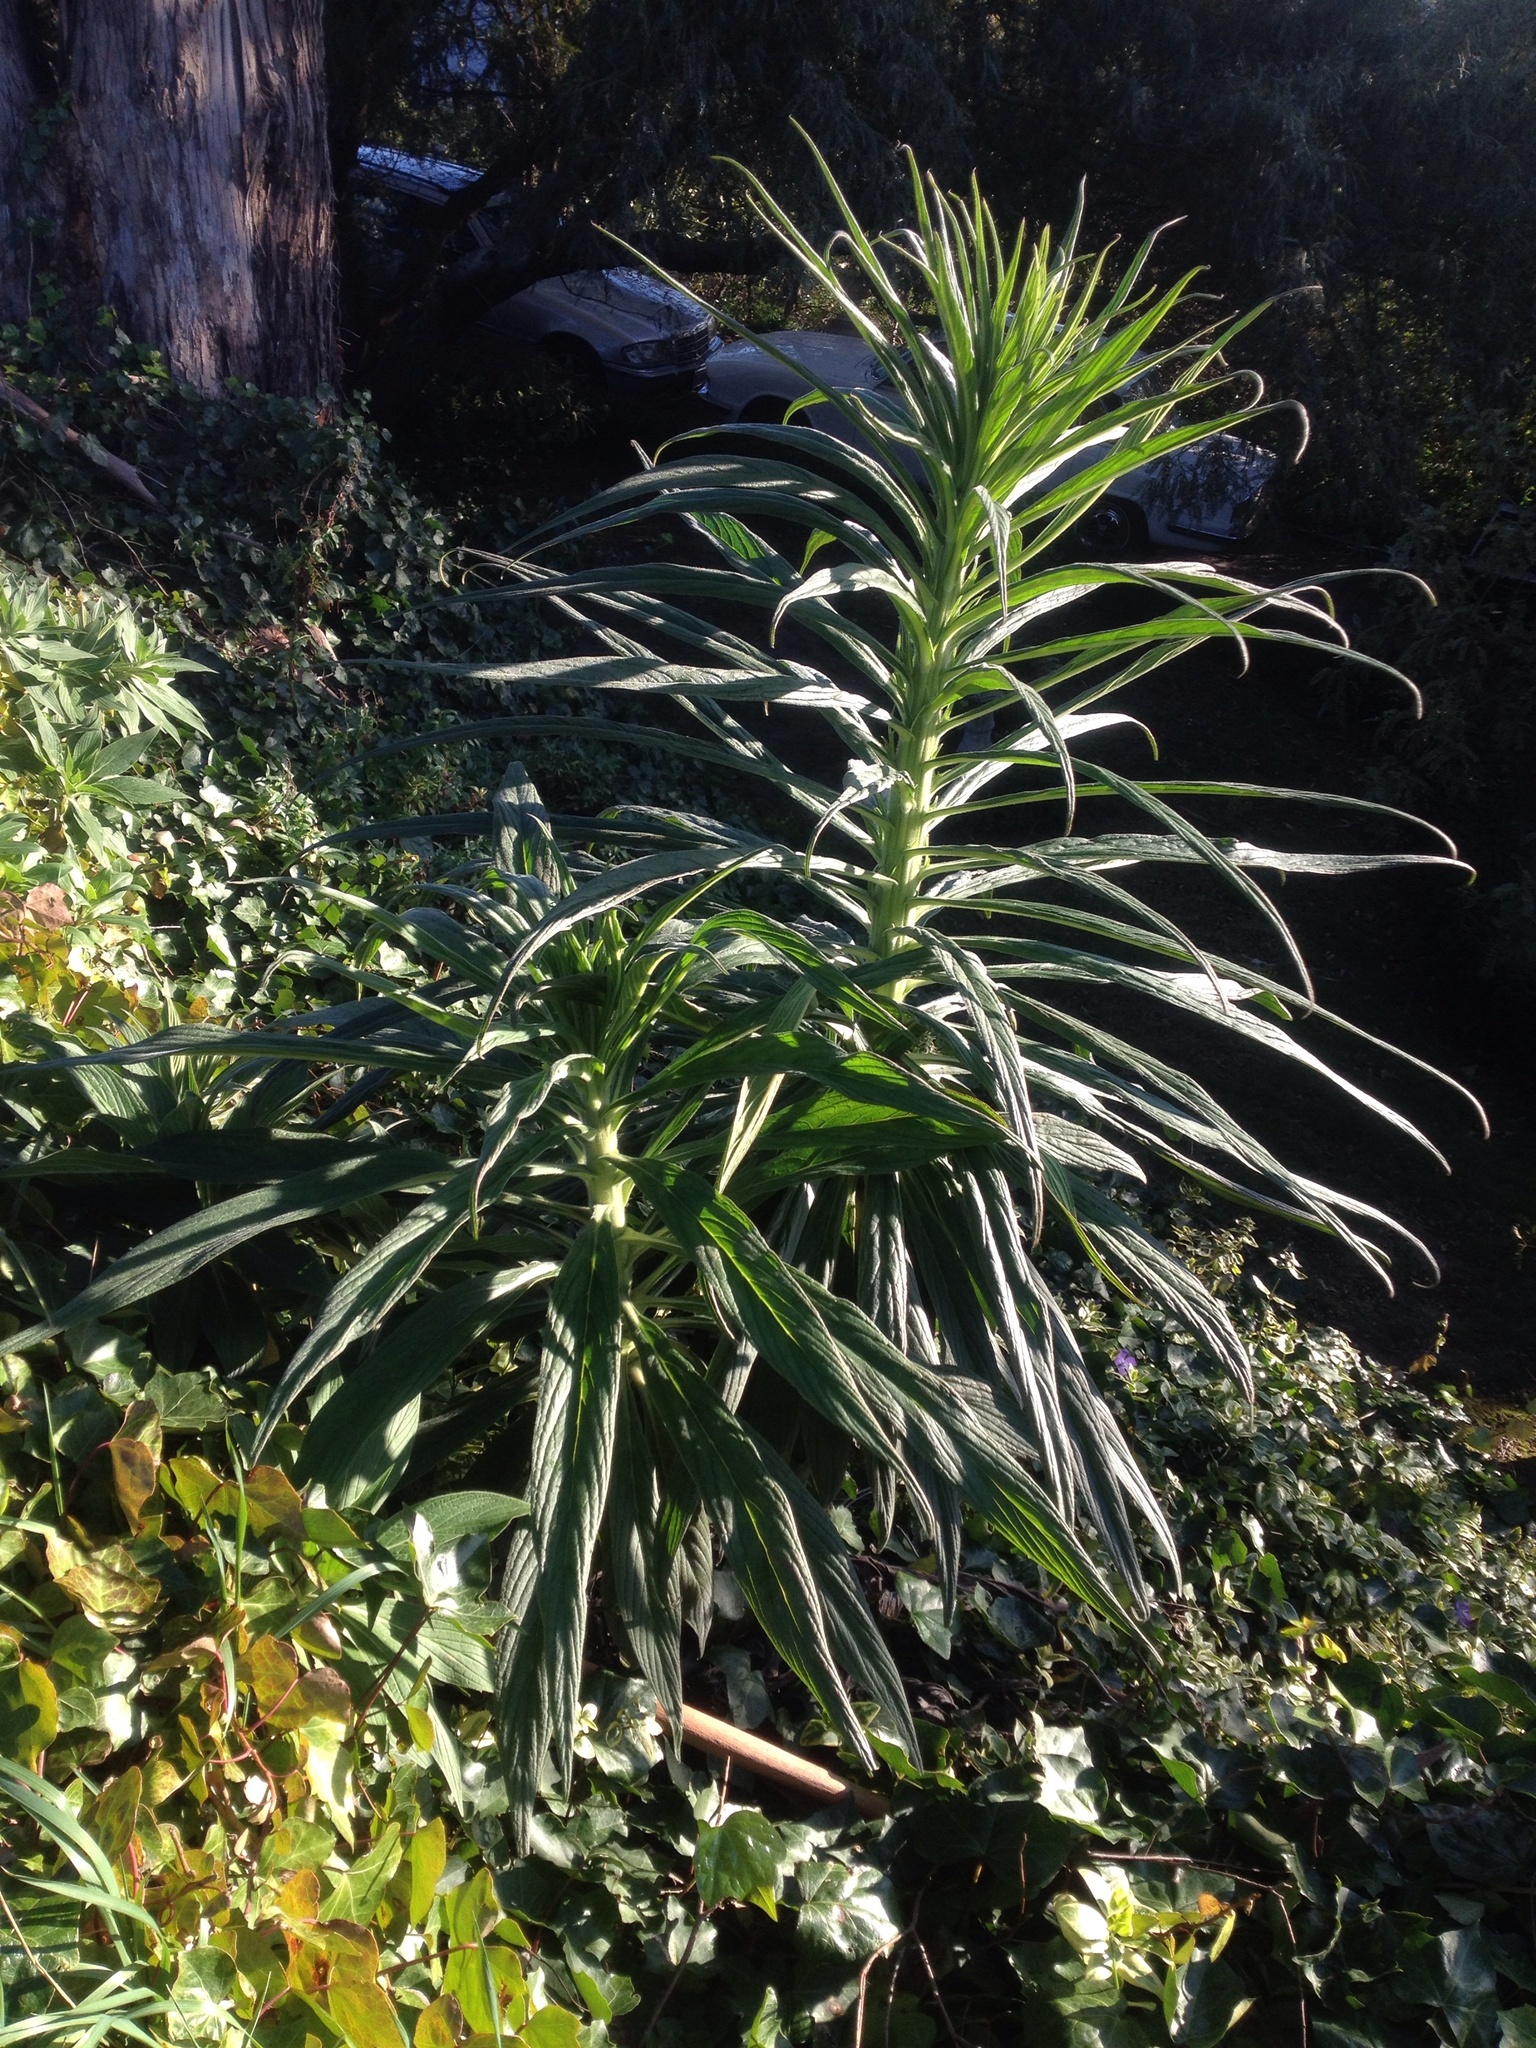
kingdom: Plantae
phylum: Tracheophyta
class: Magnoliopsida
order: Boraginales
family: Boraginaceae
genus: Echium
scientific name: Echium pininana
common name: Giant viper's-bugloss
